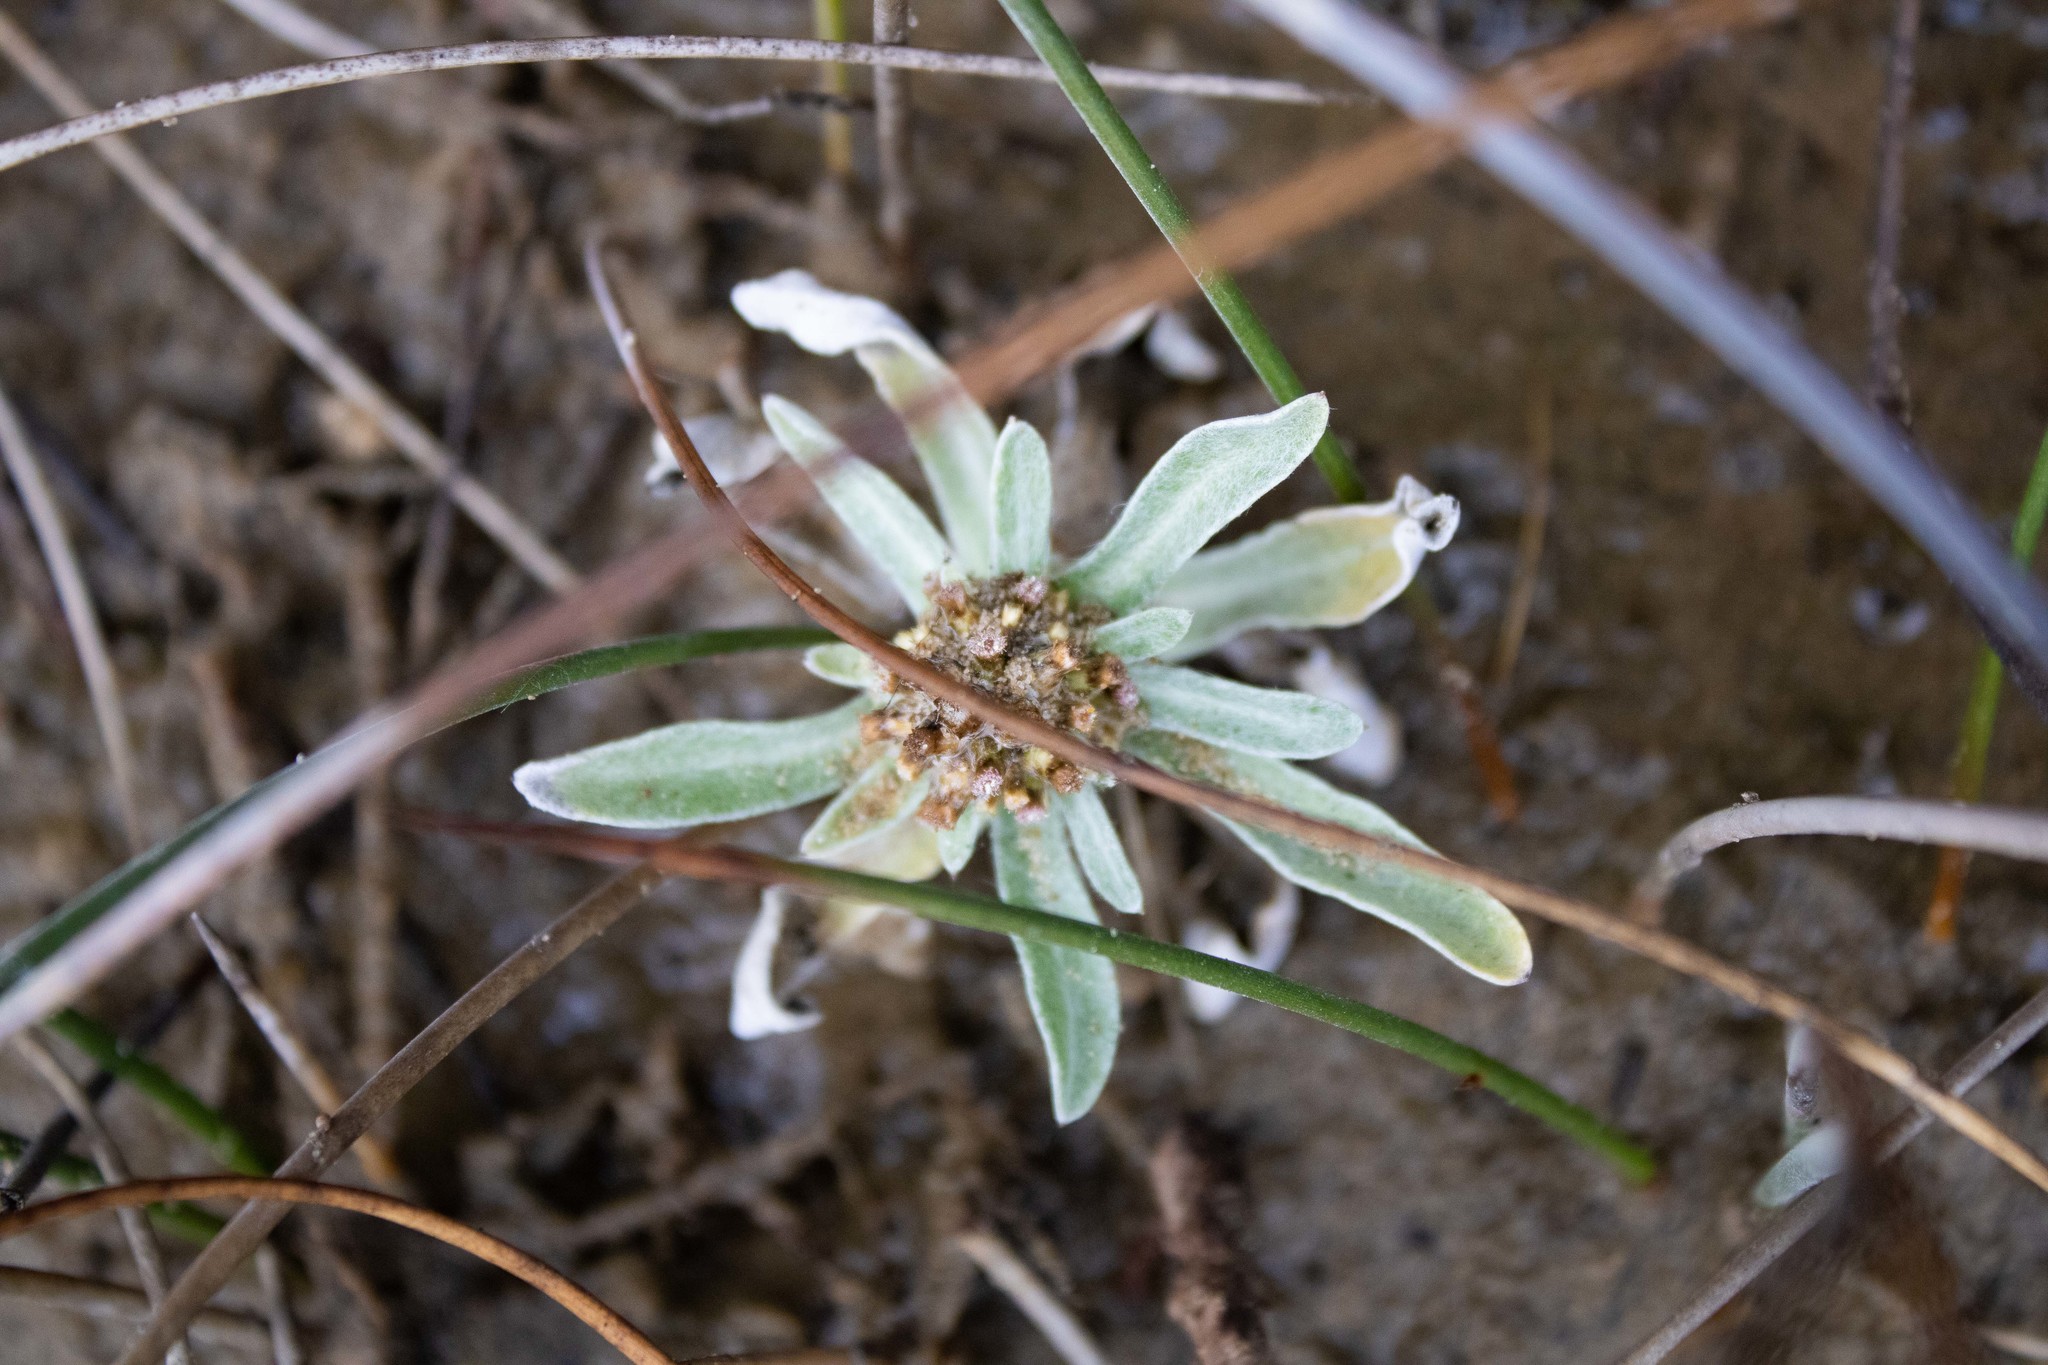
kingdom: Plantae
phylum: Tracheophyta
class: Magnoliopsida
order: Asterales
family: Asteraceae
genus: Gamochaeta
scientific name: Gamochaeta ustulata
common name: Pacific cudweed
